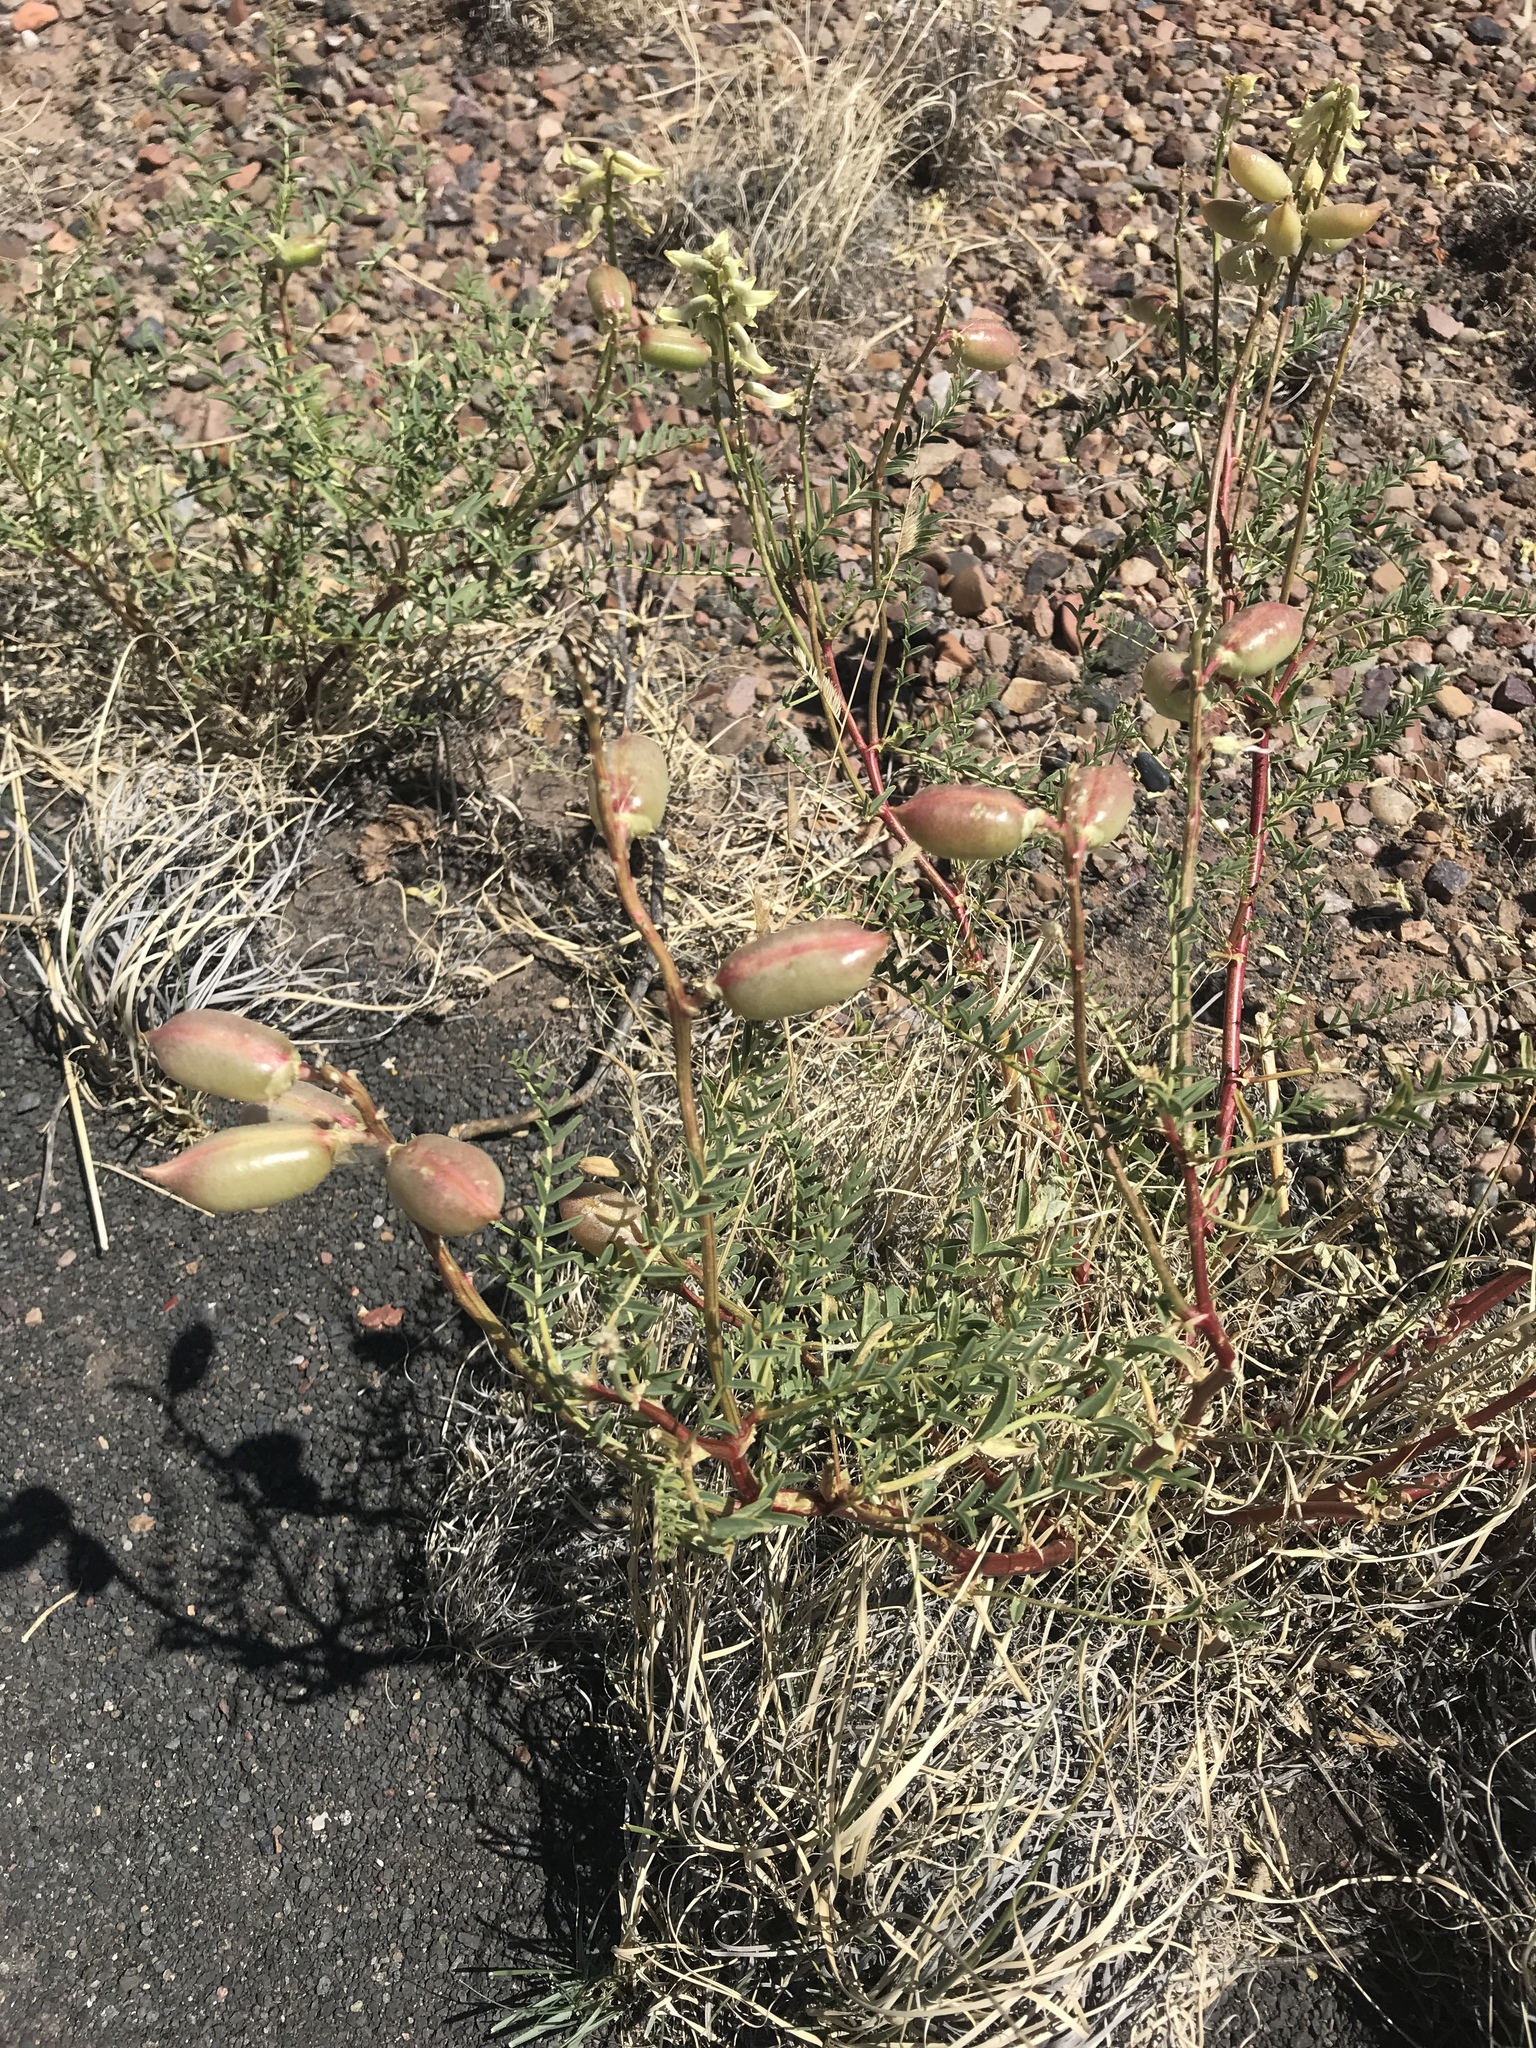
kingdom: Plantae
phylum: Tracheophyta
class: Magnoliopsida
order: Fabales
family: Fabaceae
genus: Astragalus
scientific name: Astragalus praelongus
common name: Stinking milk-vetch
